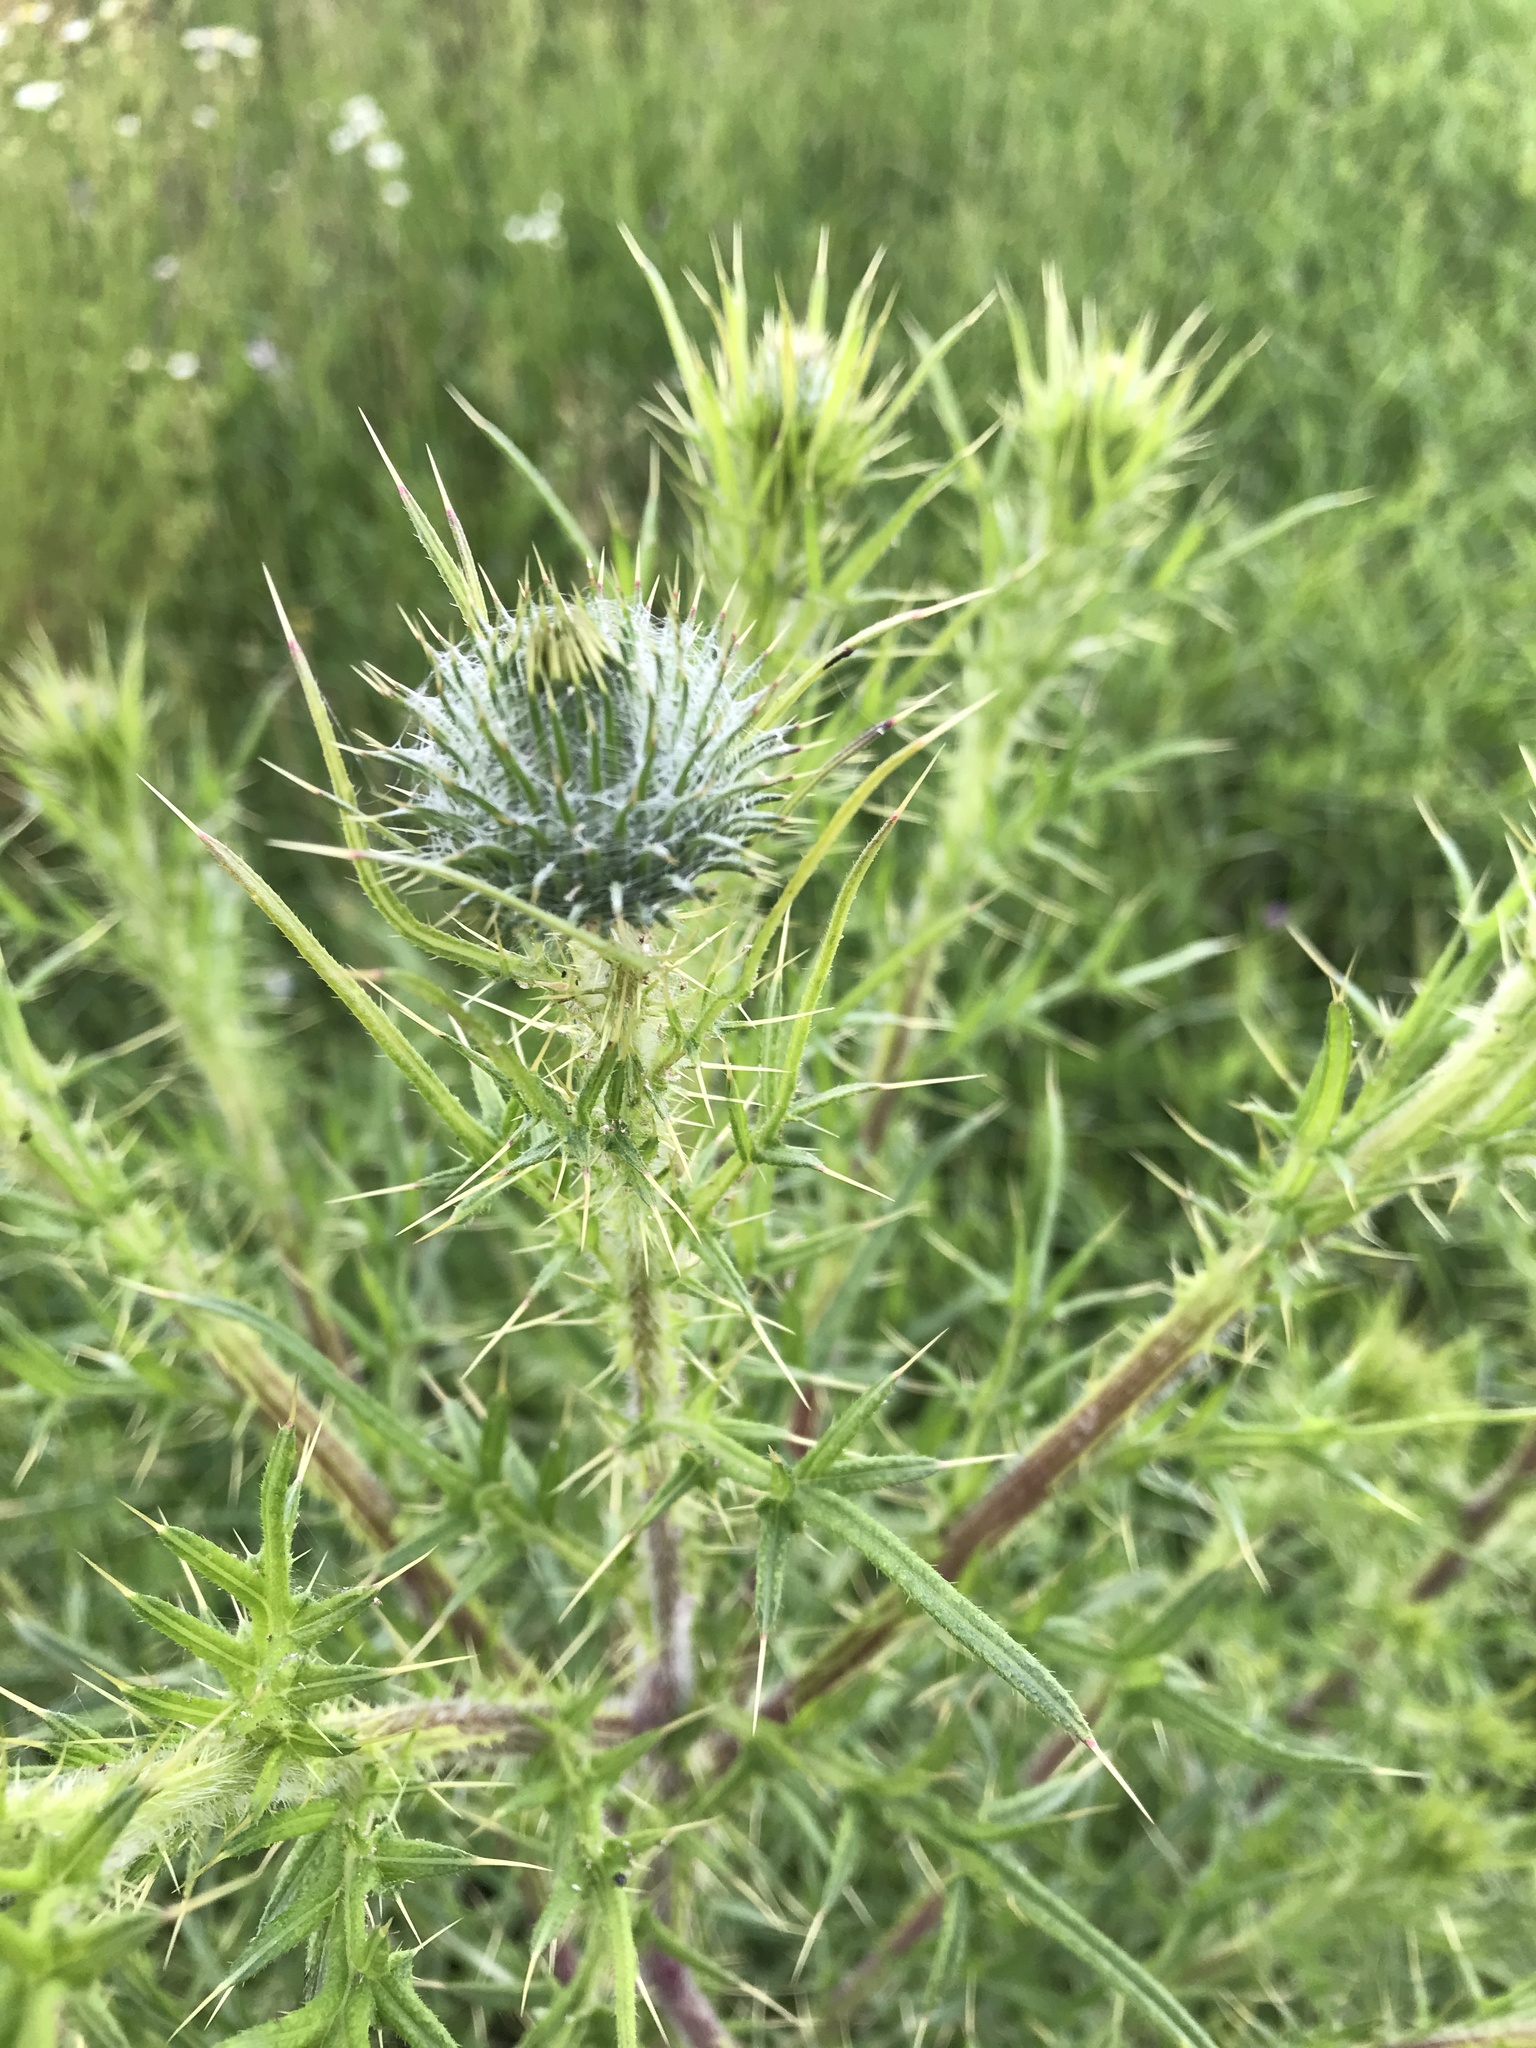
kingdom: Plantae
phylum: Tracheophyta
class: Magnoliopsida
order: Asterales
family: Asteraceae
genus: Cirsium
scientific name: Cirsium vulgare
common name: Bull thistle
